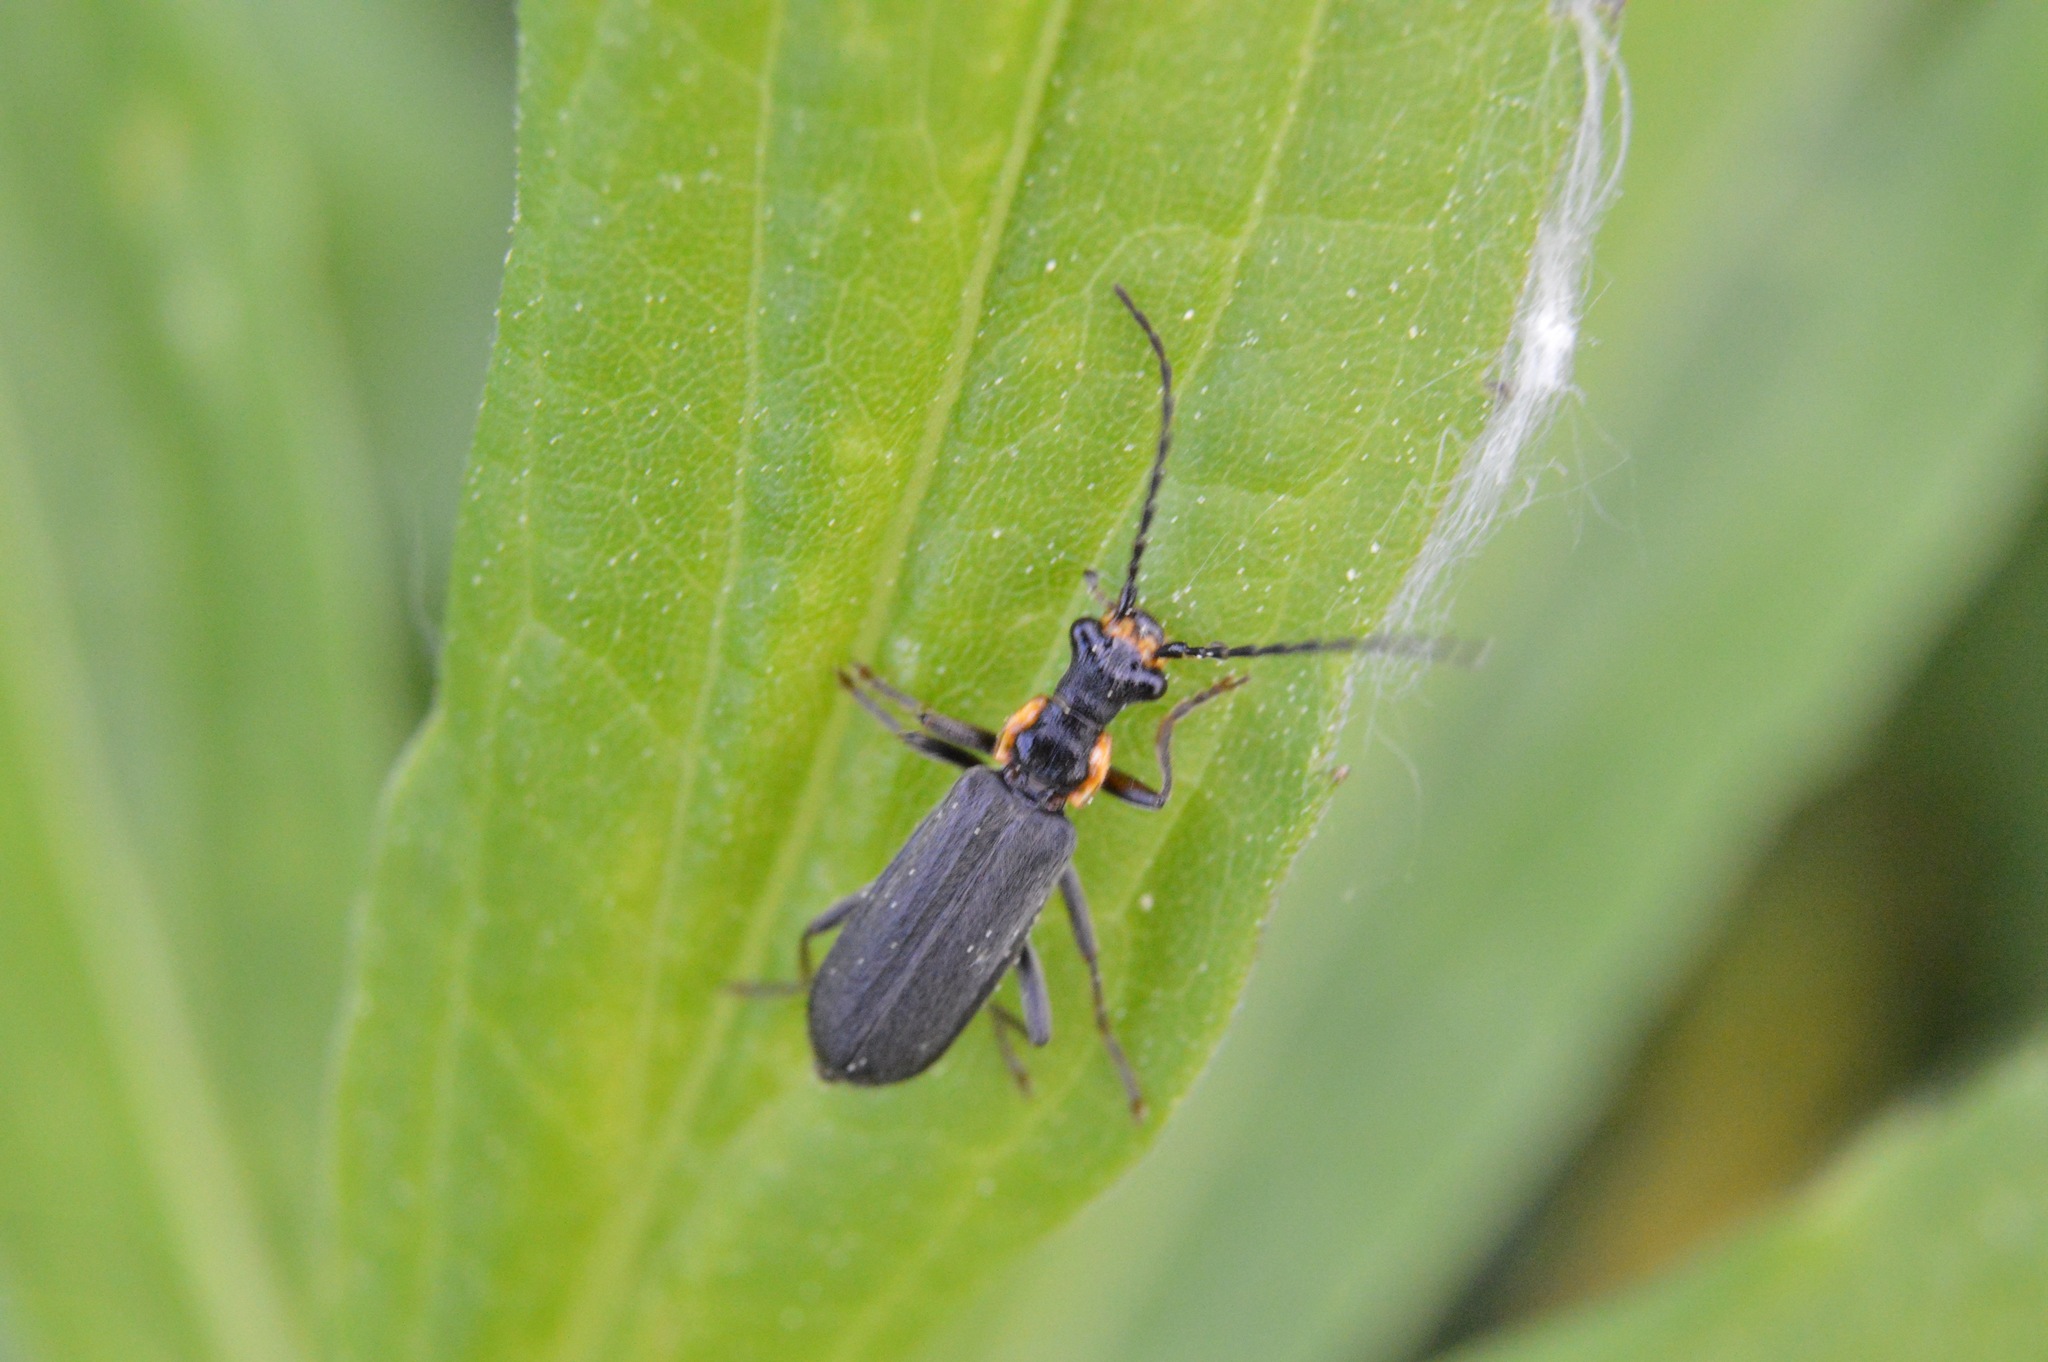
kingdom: Animalia
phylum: Arthropoda
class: Insecta
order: Coleoptera
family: Cantharidae
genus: Podabrus
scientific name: Podabrus rugosulus
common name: Wrinkled soldier beetle
